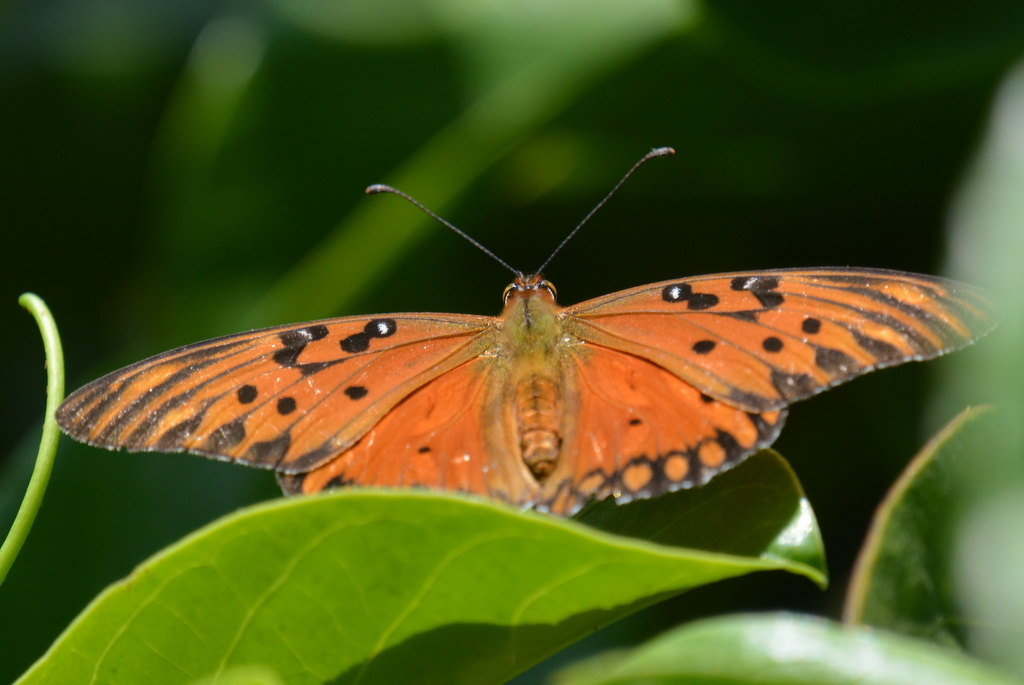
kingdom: Animalia
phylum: Arthropoda
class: Insecta
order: Lepidoptera
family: Nymphalidae
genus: Dione
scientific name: Dione vanillae
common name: Gulf fritillary
